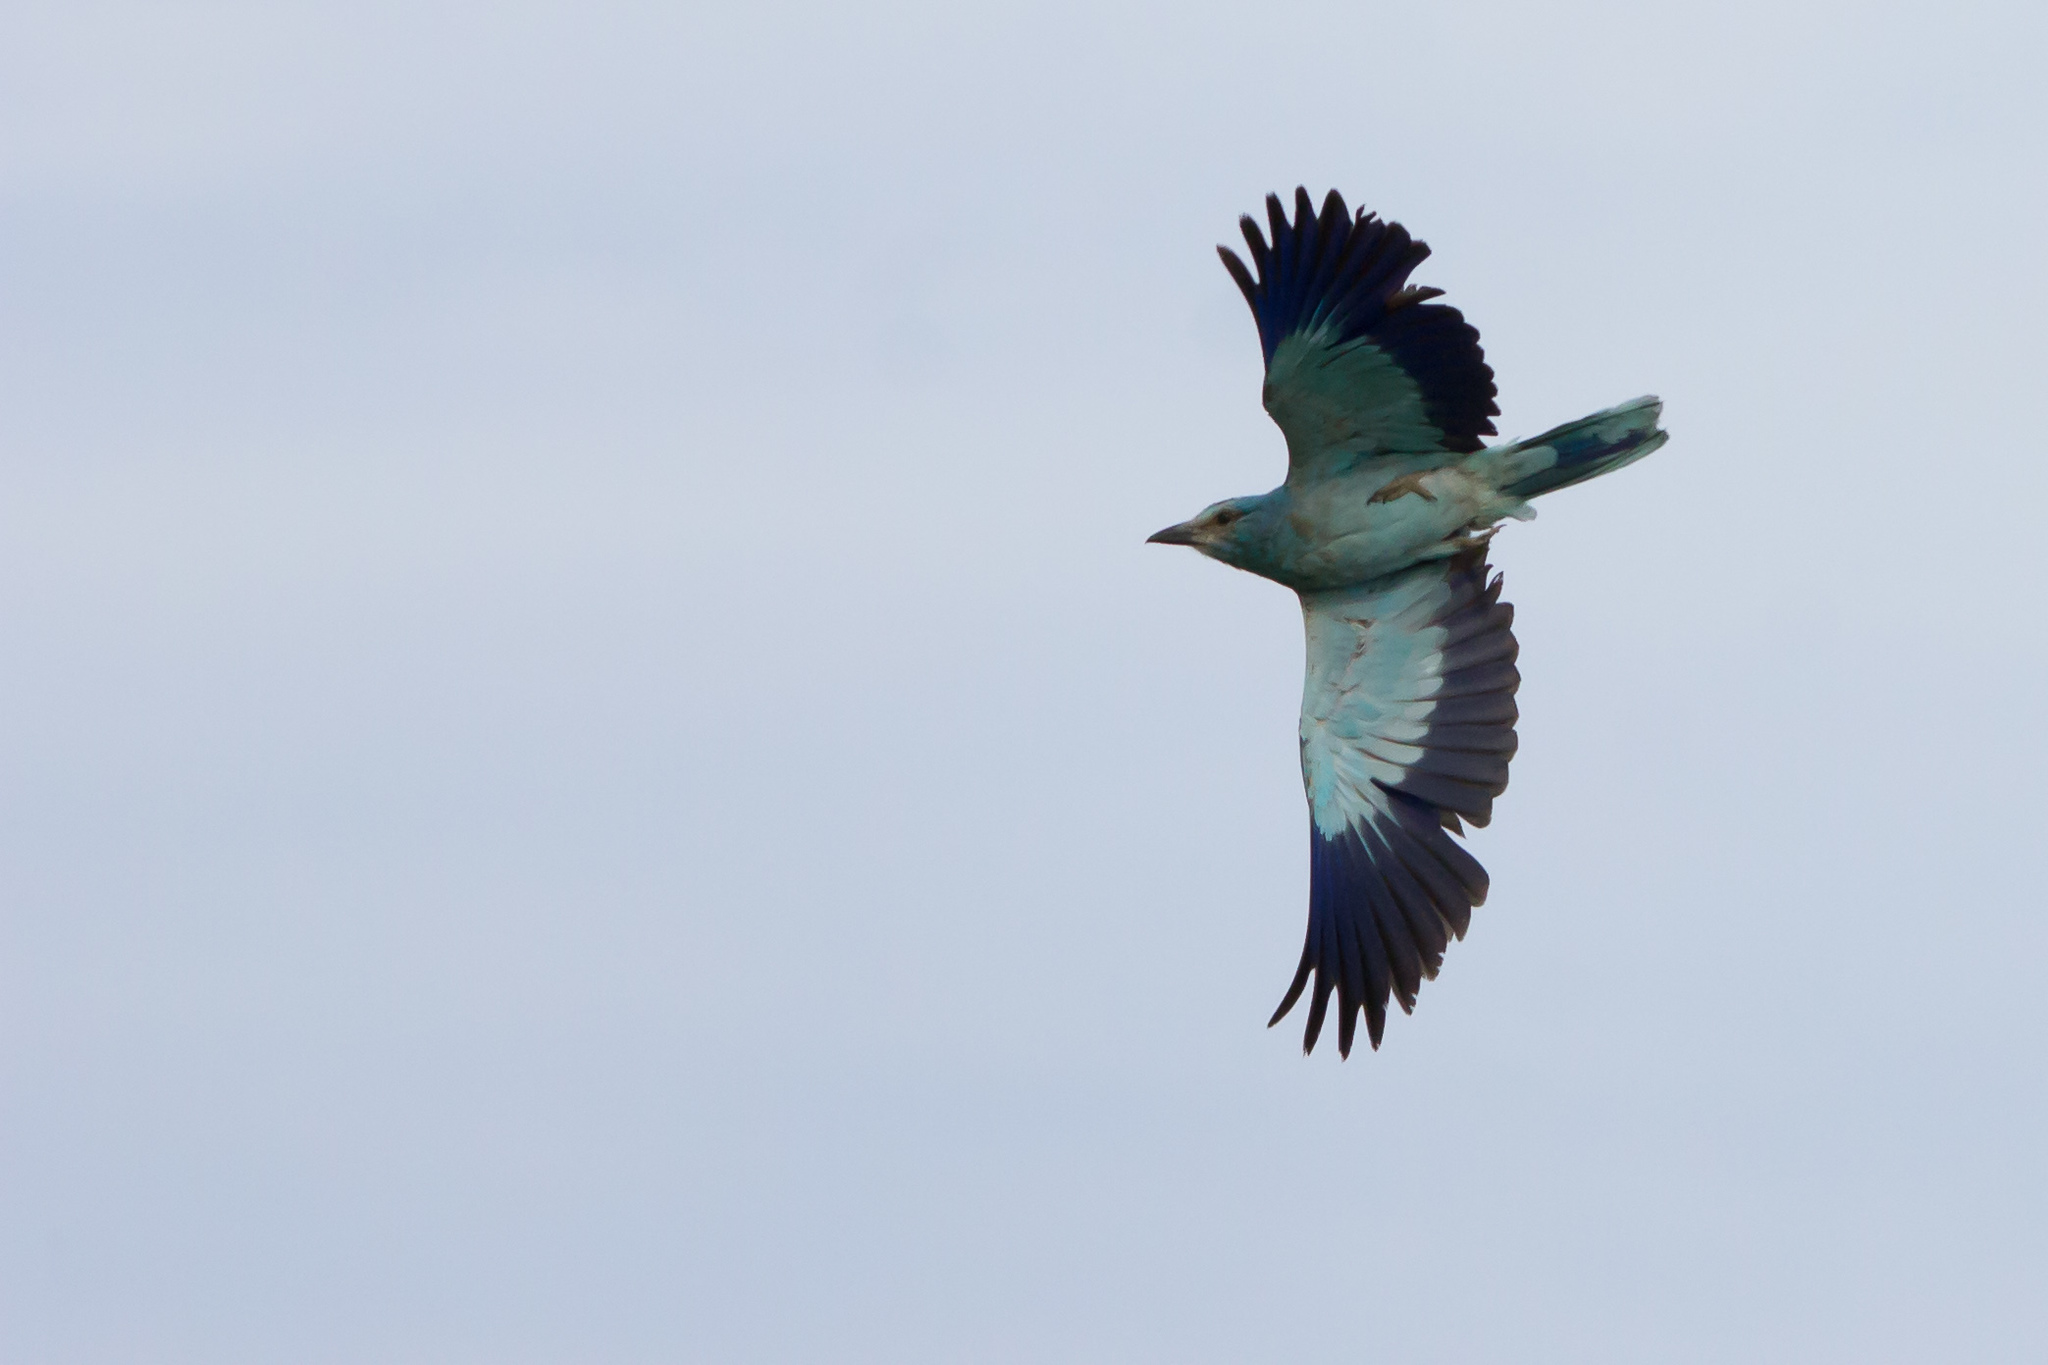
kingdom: Animalia
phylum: Chordata
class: Aves
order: Coraciiformes
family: Coraciidae
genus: Coracias
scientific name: Coracias garrulus
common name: European roller
